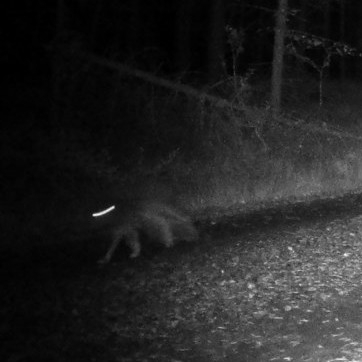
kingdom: Animalia
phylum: Chordata
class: Mammalia
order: Carnivora
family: Canidae
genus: Vulpes
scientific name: Vulpes vulpes
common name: Red fox
